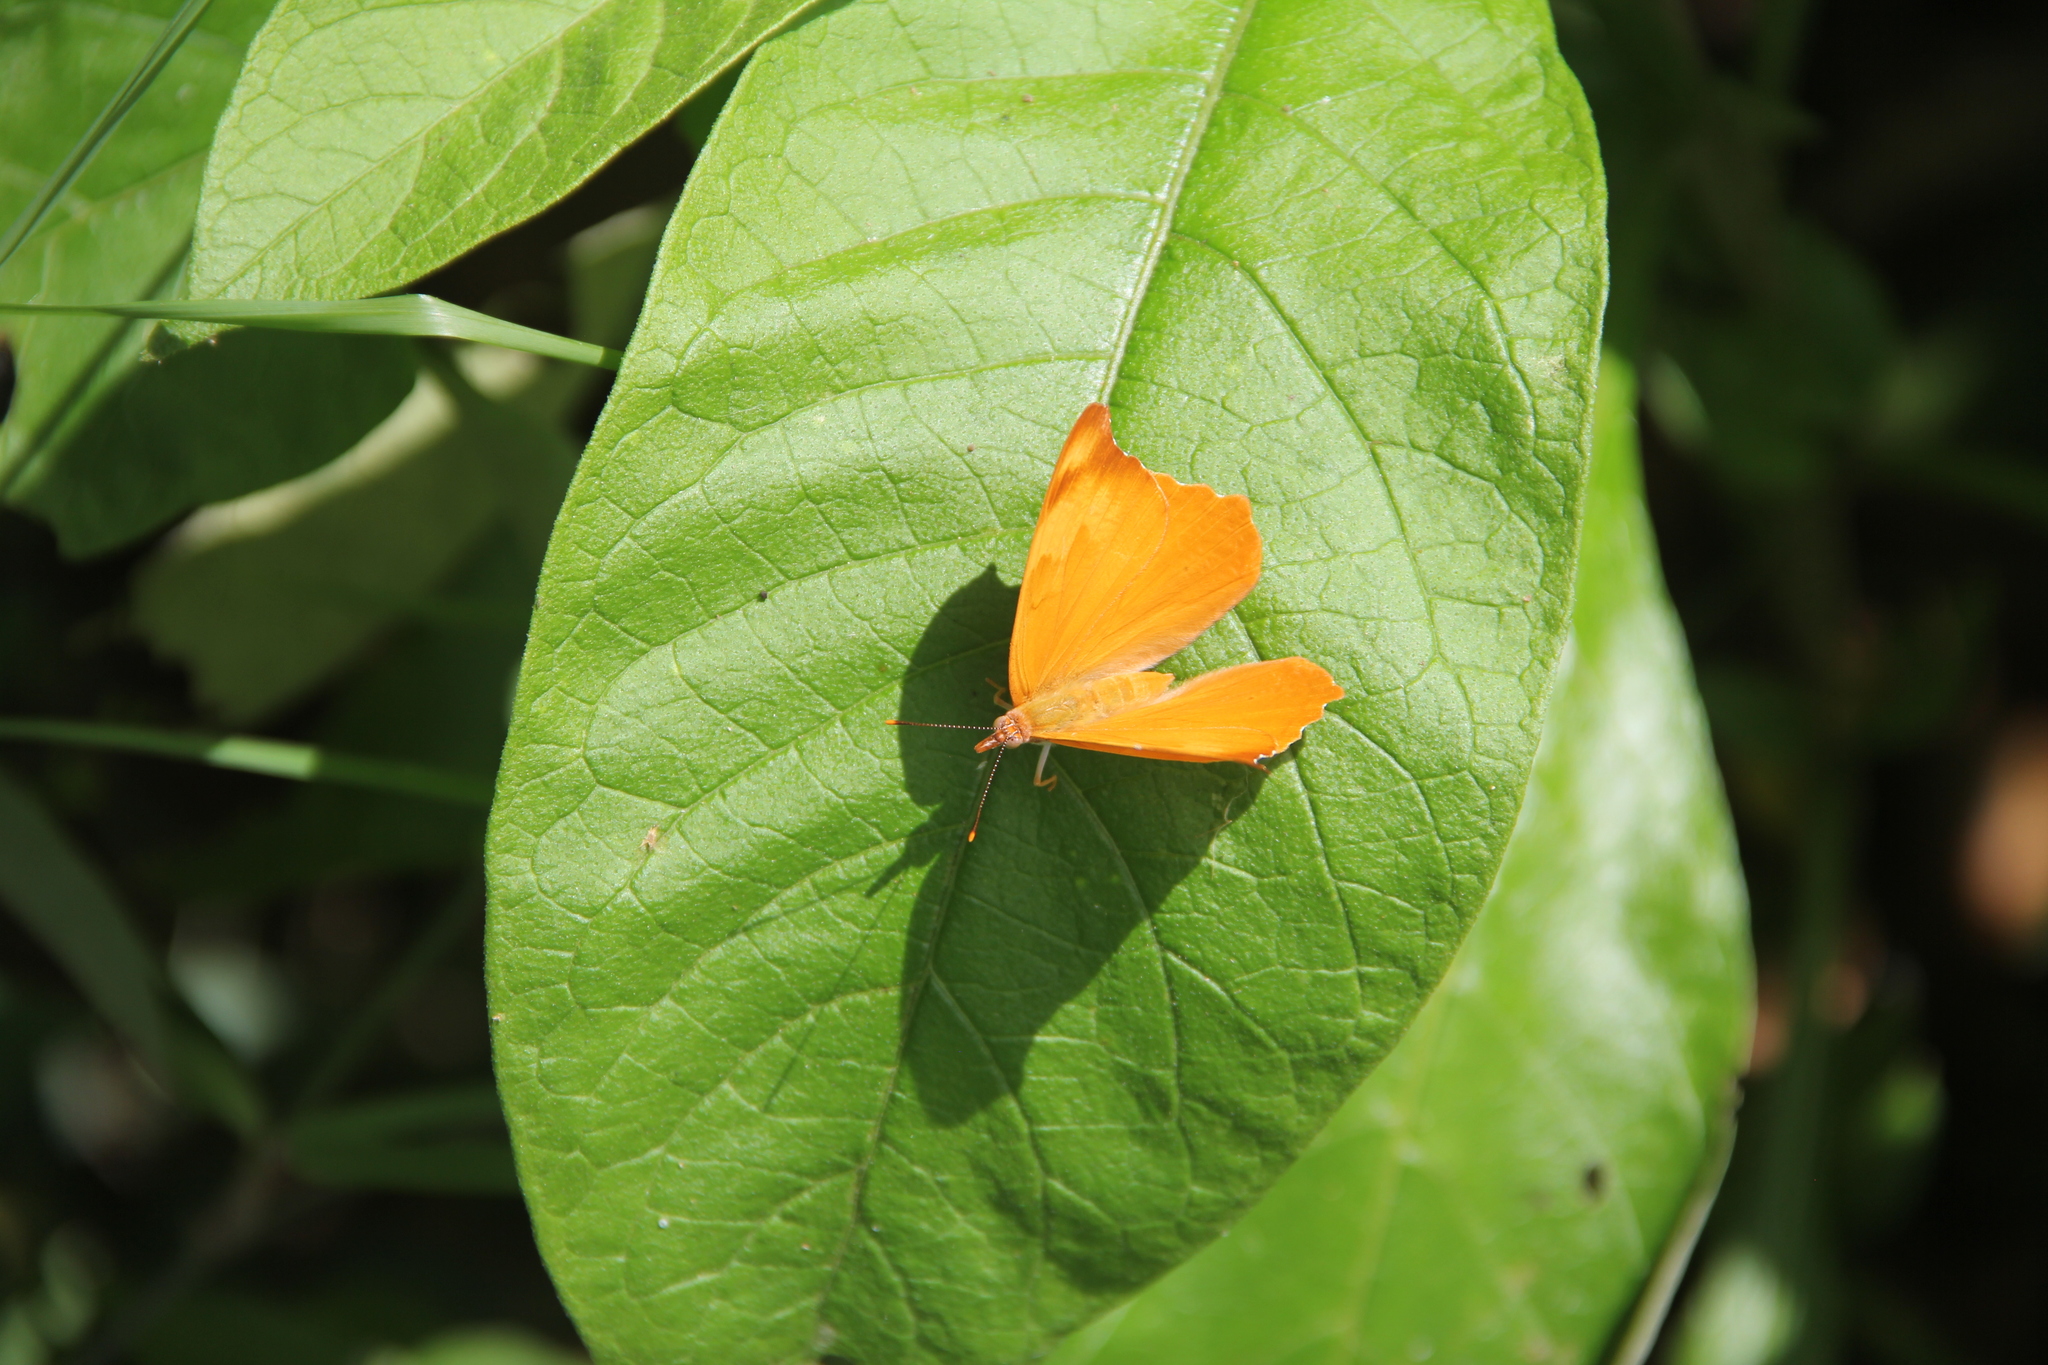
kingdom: Animalia
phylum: Arthropoda
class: Insecta
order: Lepidoptera
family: Nymphalidae
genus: Temenis
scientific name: Temenis laothoe
